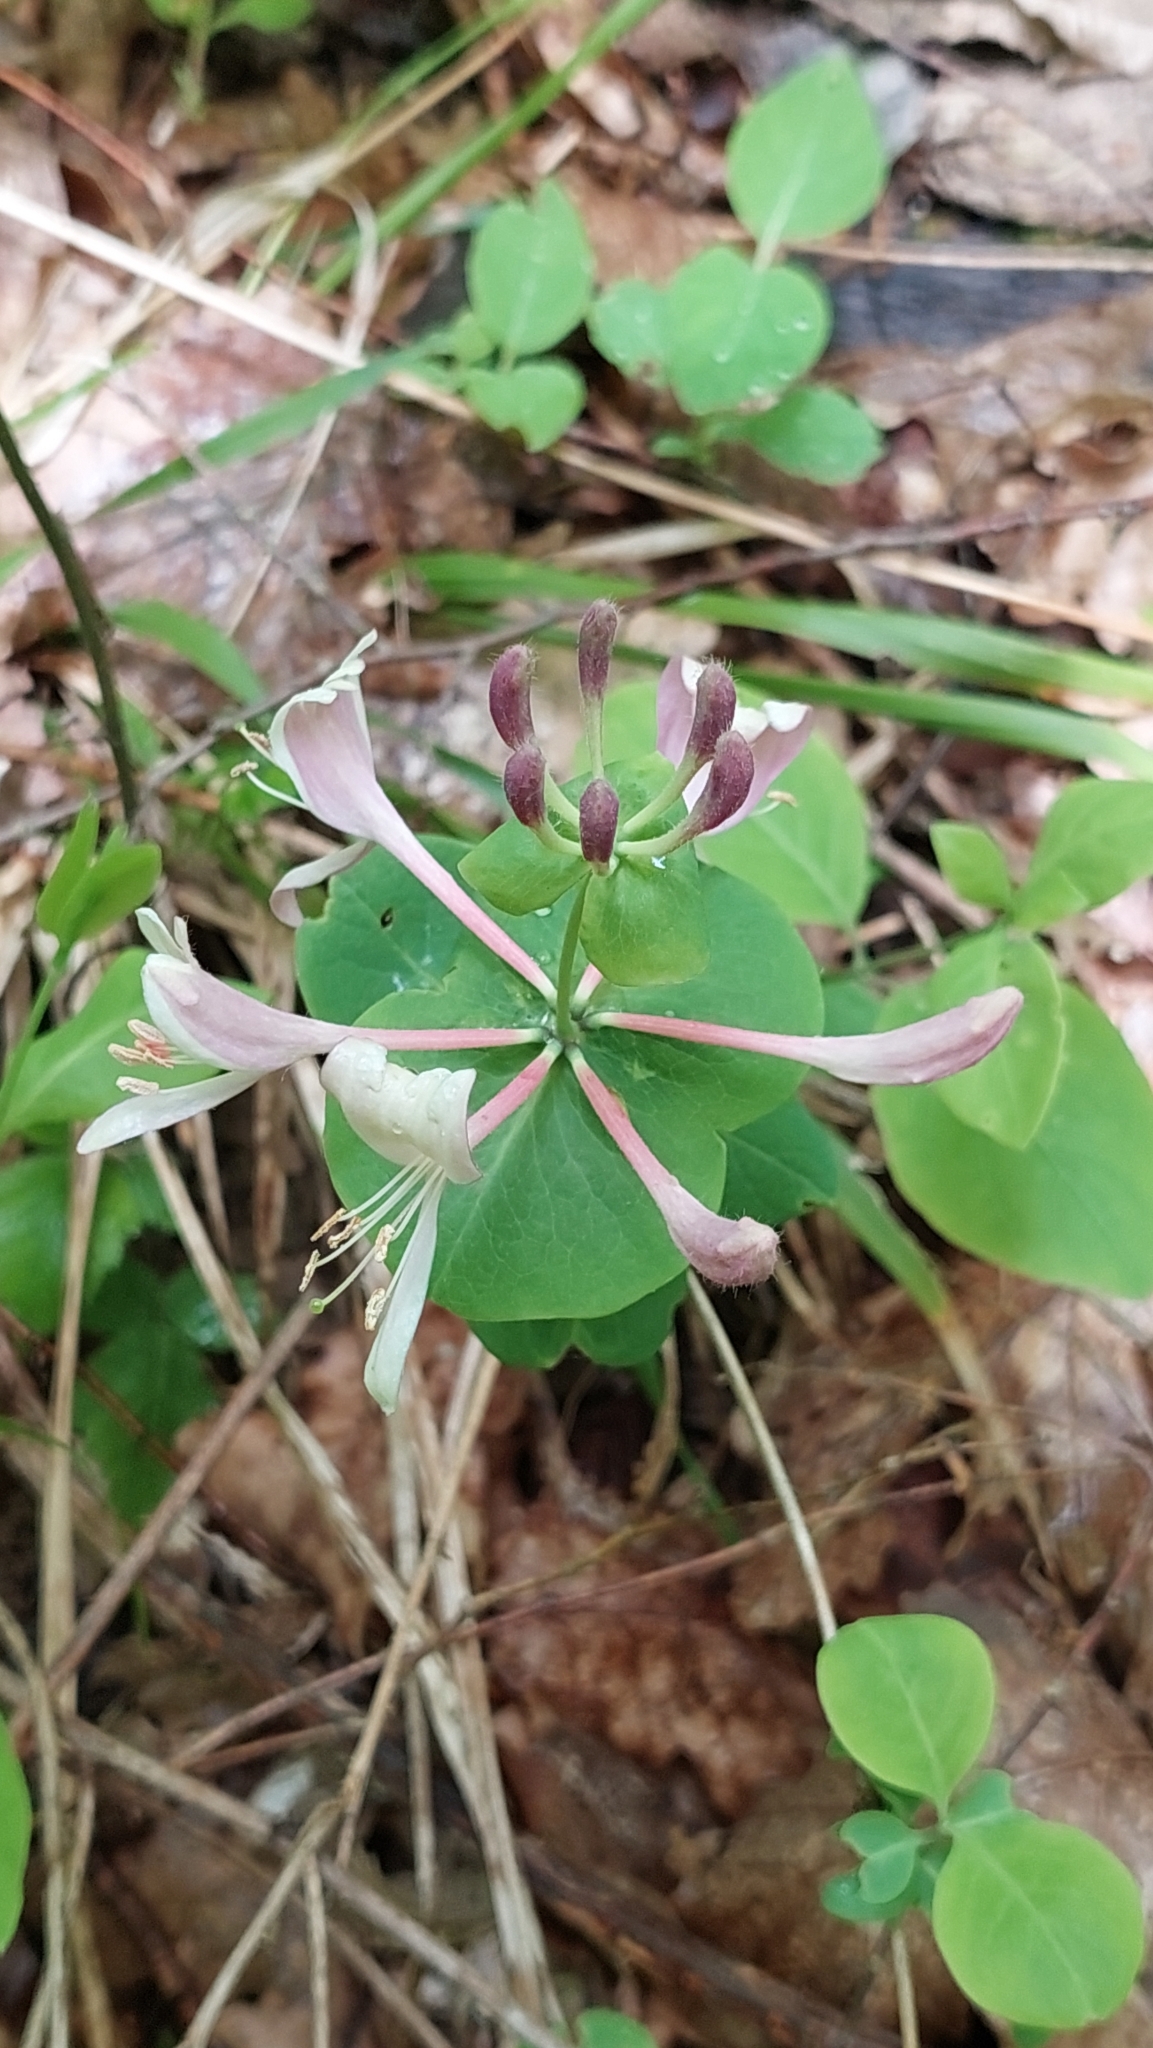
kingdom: Plantae
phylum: Tracheophyta
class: Magnoliopsida
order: Dipsacales
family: Caprifoliaceae
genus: Lonicera
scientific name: Lonicera caprifolium
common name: Perfoliate honeysuckle
